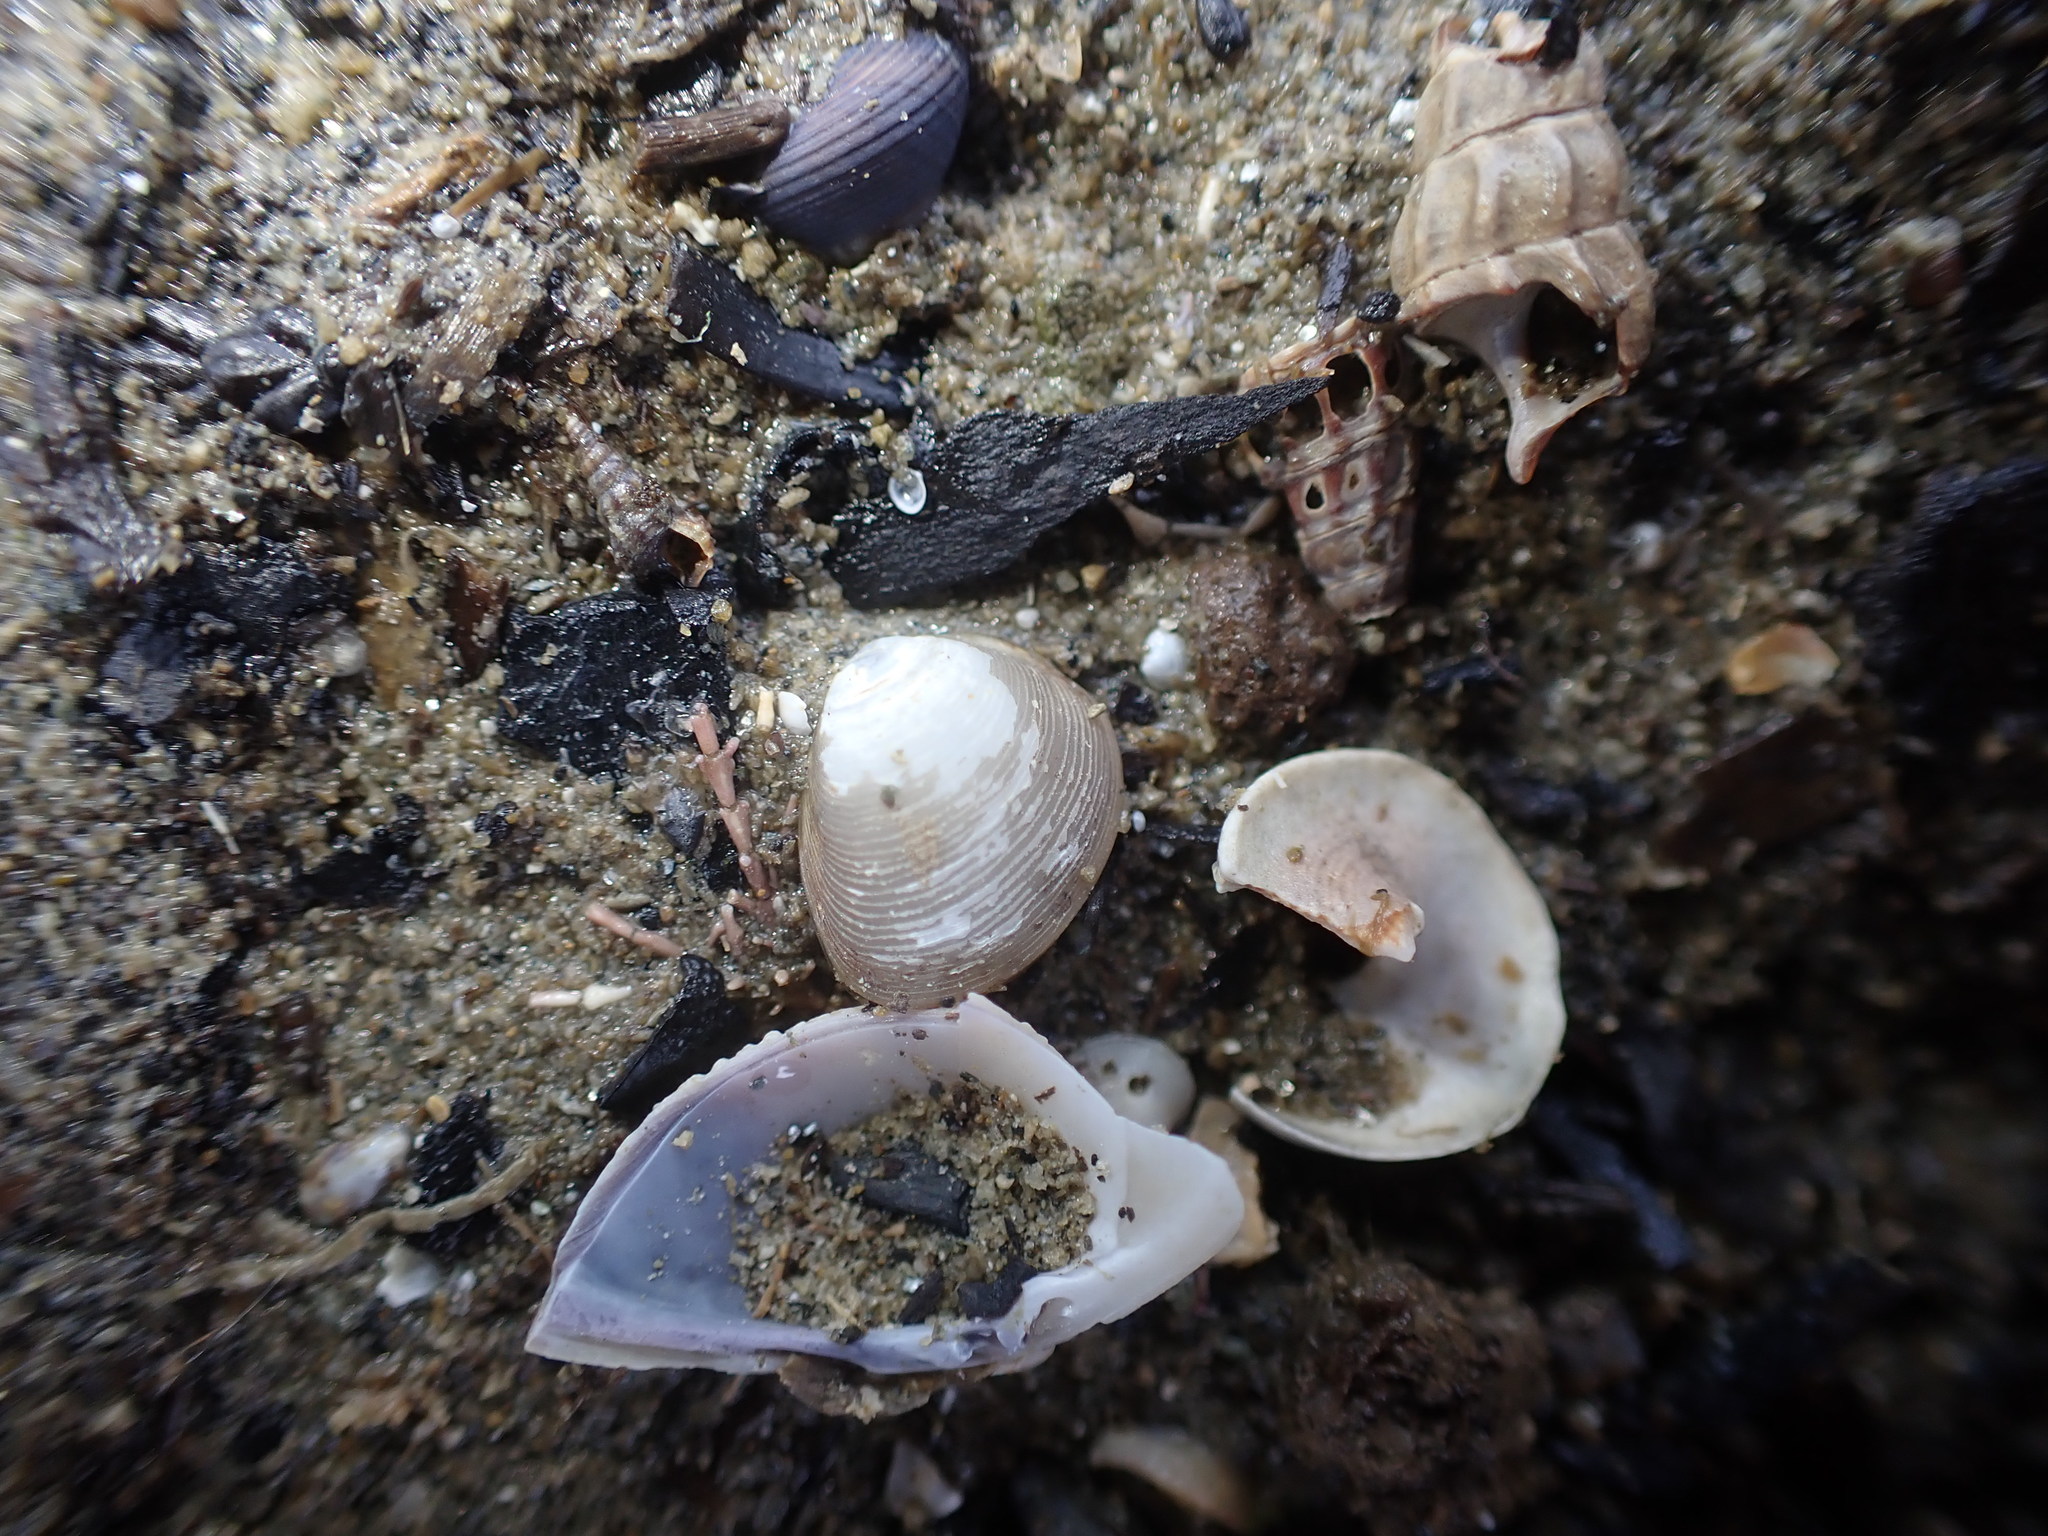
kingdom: Animalia
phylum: Mollusca
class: Bivalvia
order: Nuculida
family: Nuculidae
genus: Linucula
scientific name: Linucula hartvigiana
